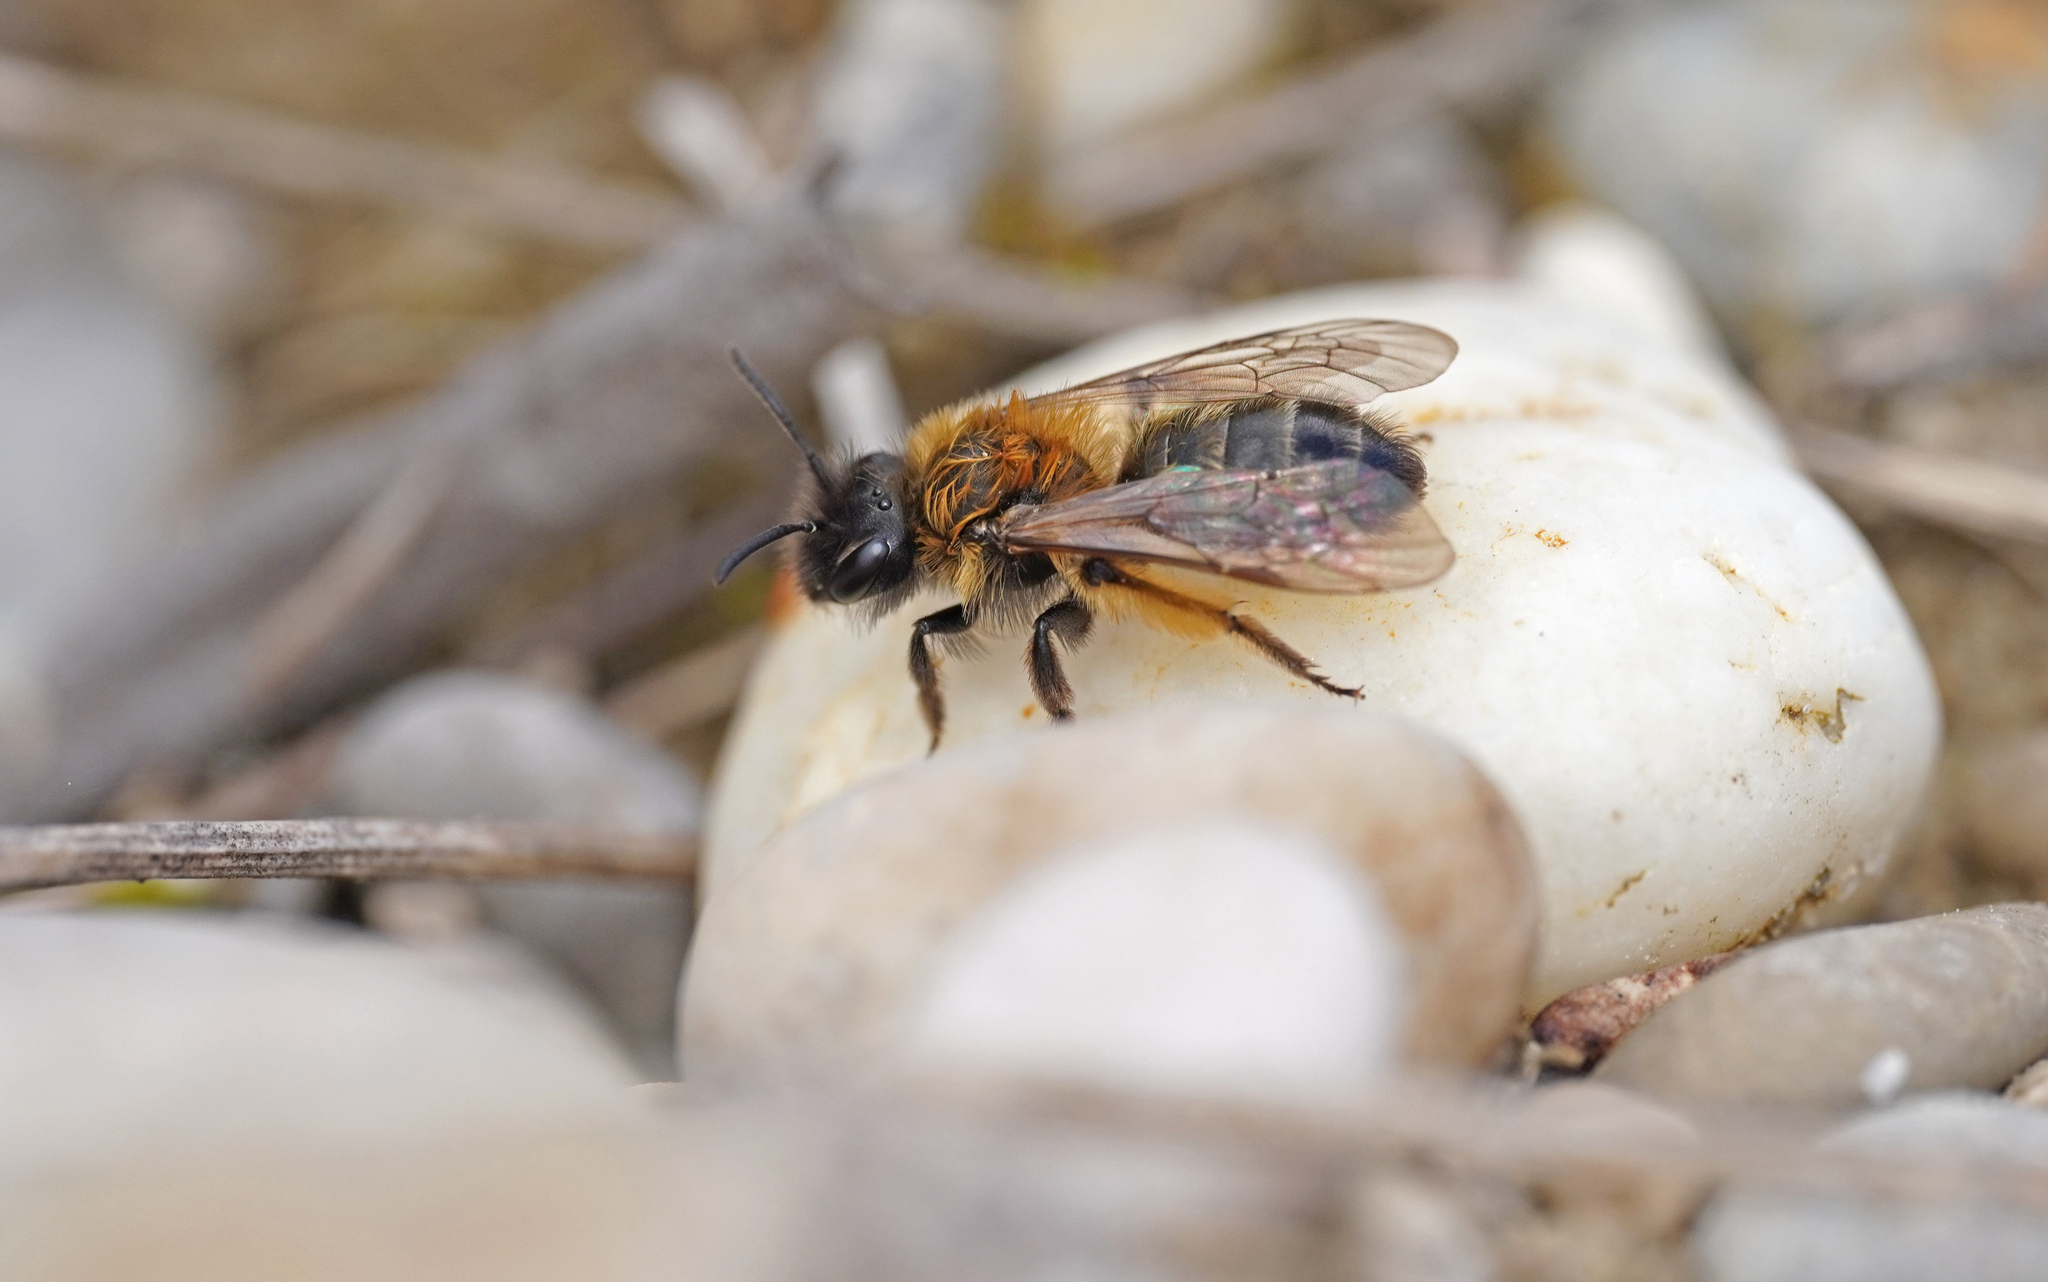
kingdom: Animalia
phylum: Arthropoda
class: Insecta
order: Hymenoptera
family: Andrenidae
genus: Andrena
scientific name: Andrena bicolor
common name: Gwynne's mining bee
